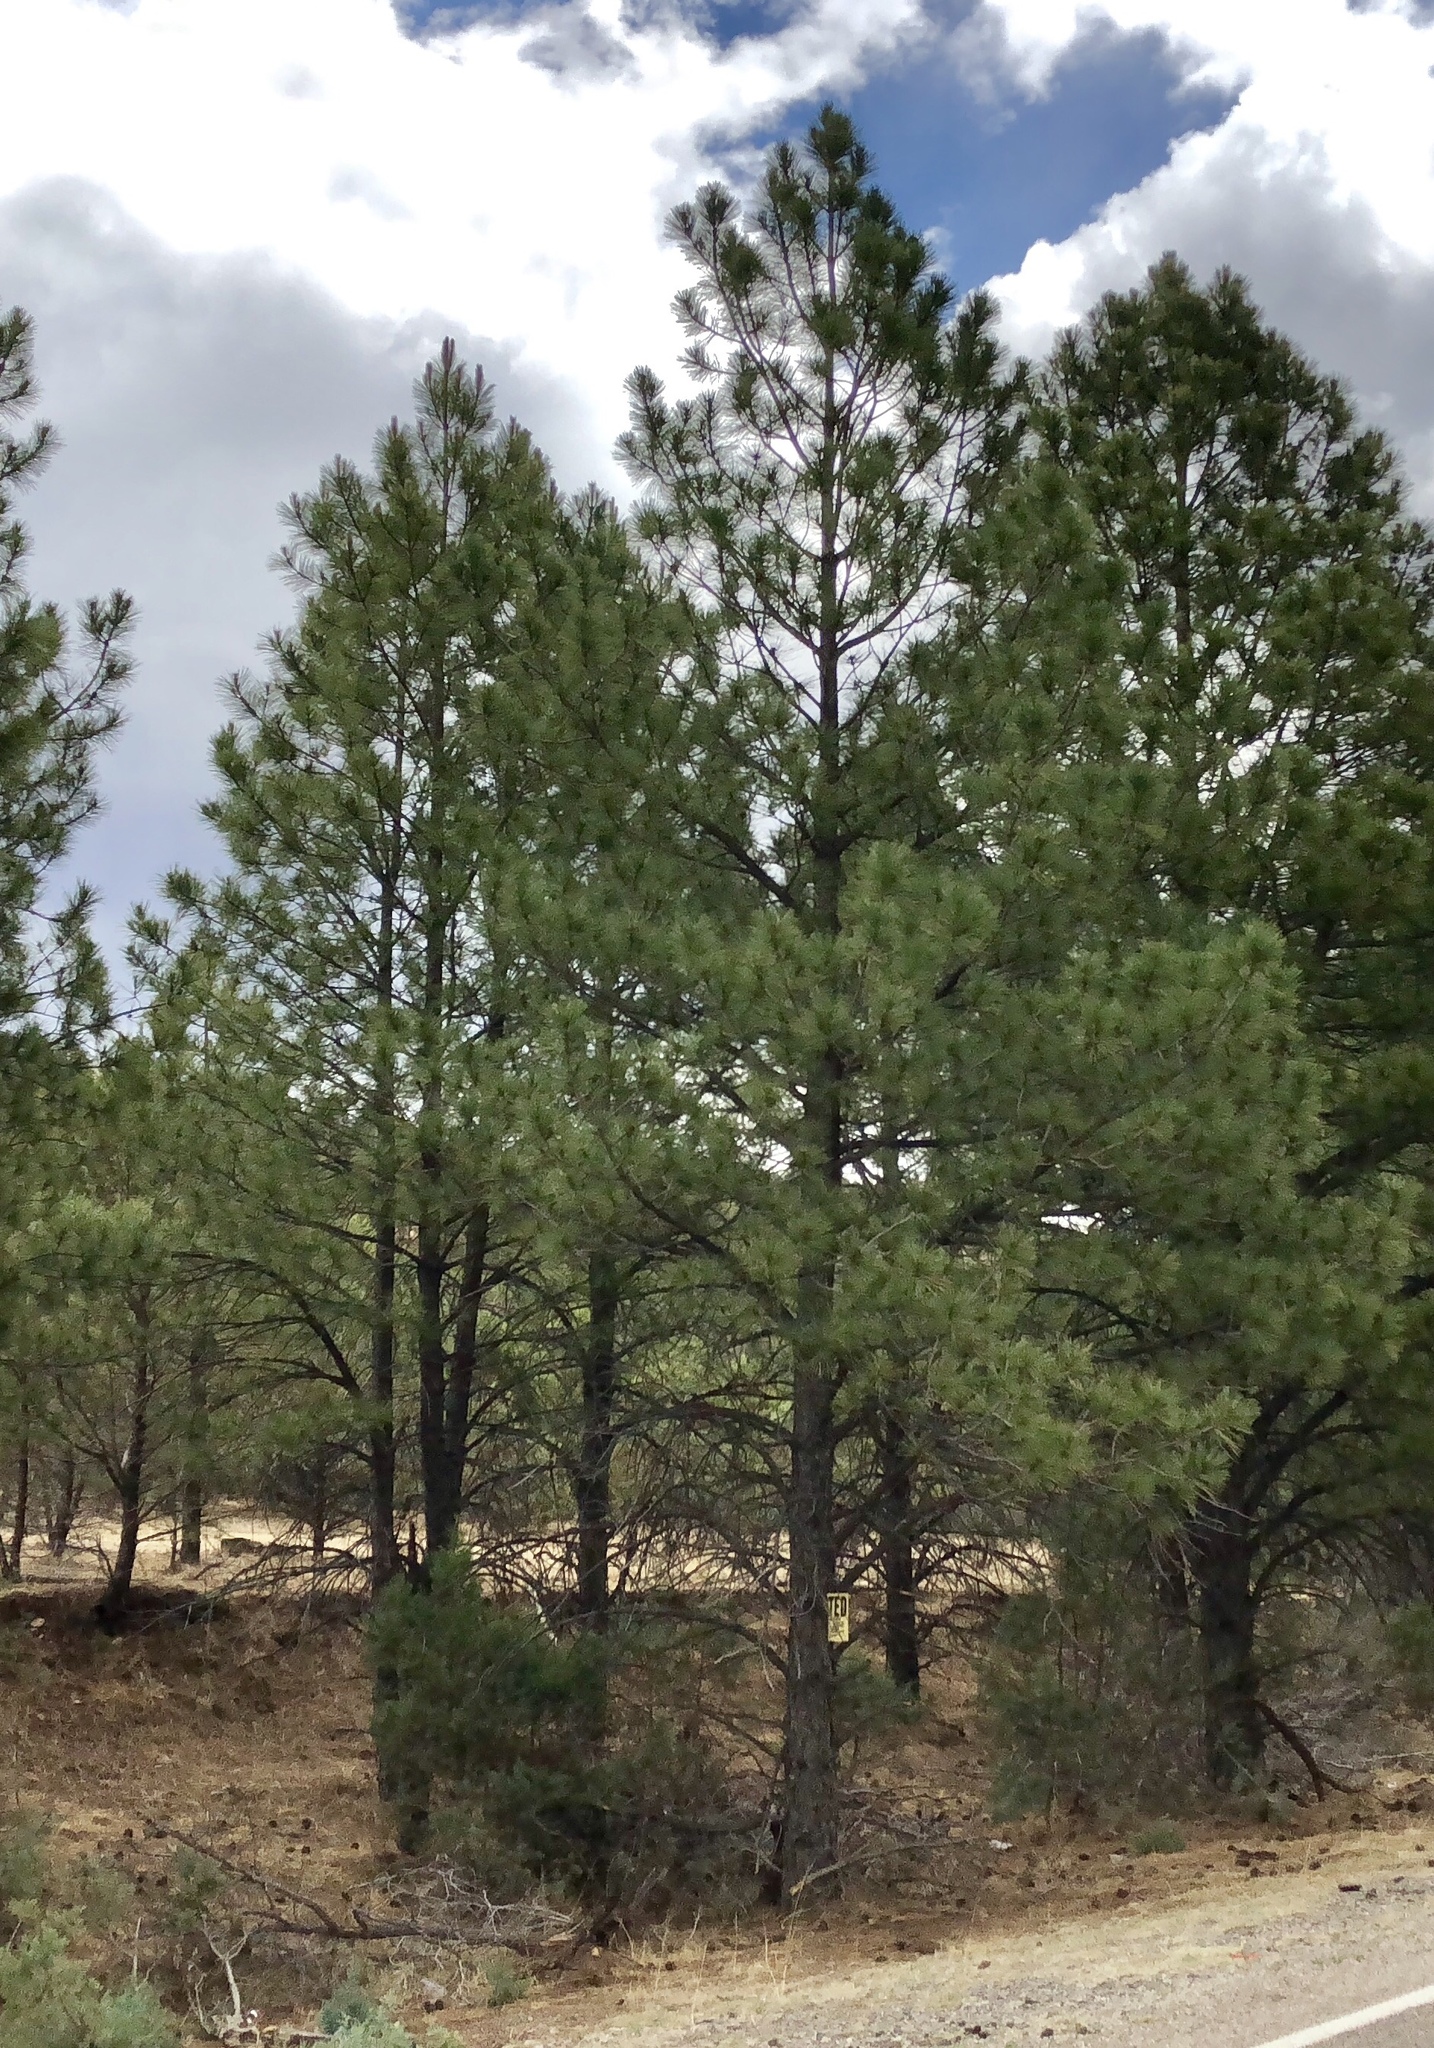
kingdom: Plantae
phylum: Tracheophyta
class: Pinopsida
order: Pinales
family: Pinaceae
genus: Pinus
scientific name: Pinus ponderosa
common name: Western yellow-pine
